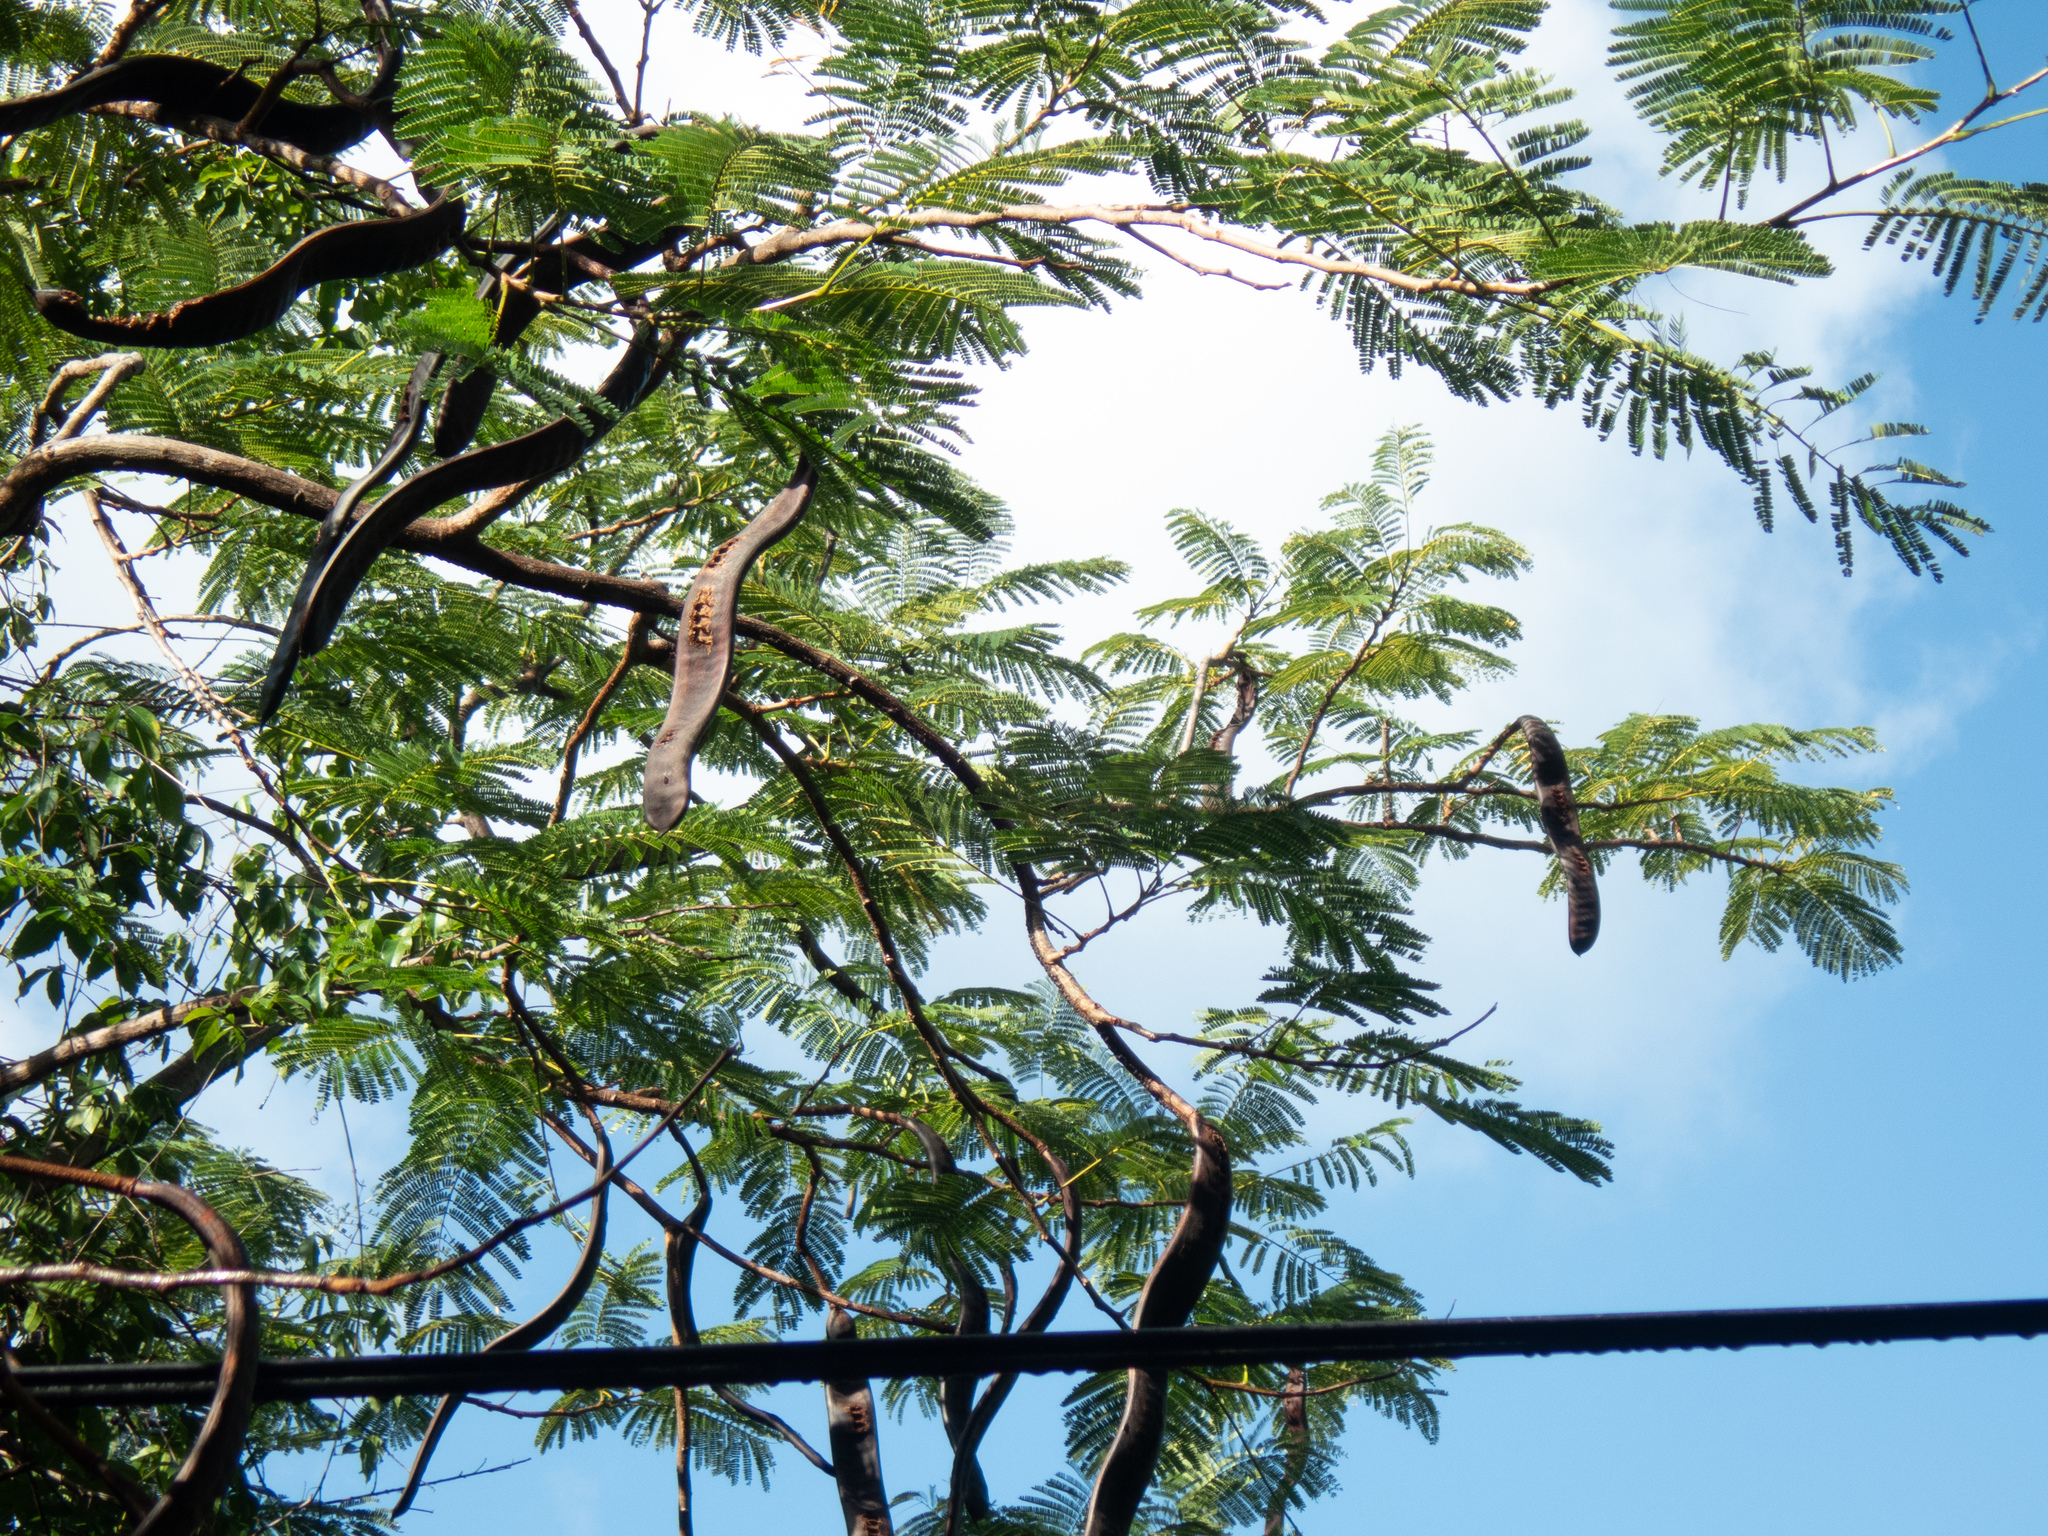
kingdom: Plantae
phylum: Tracheophyta
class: Magnoliopsida
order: Fabales
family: Fabaceae
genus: Delonix
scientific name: Delonix regia
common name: Royal poinciana
